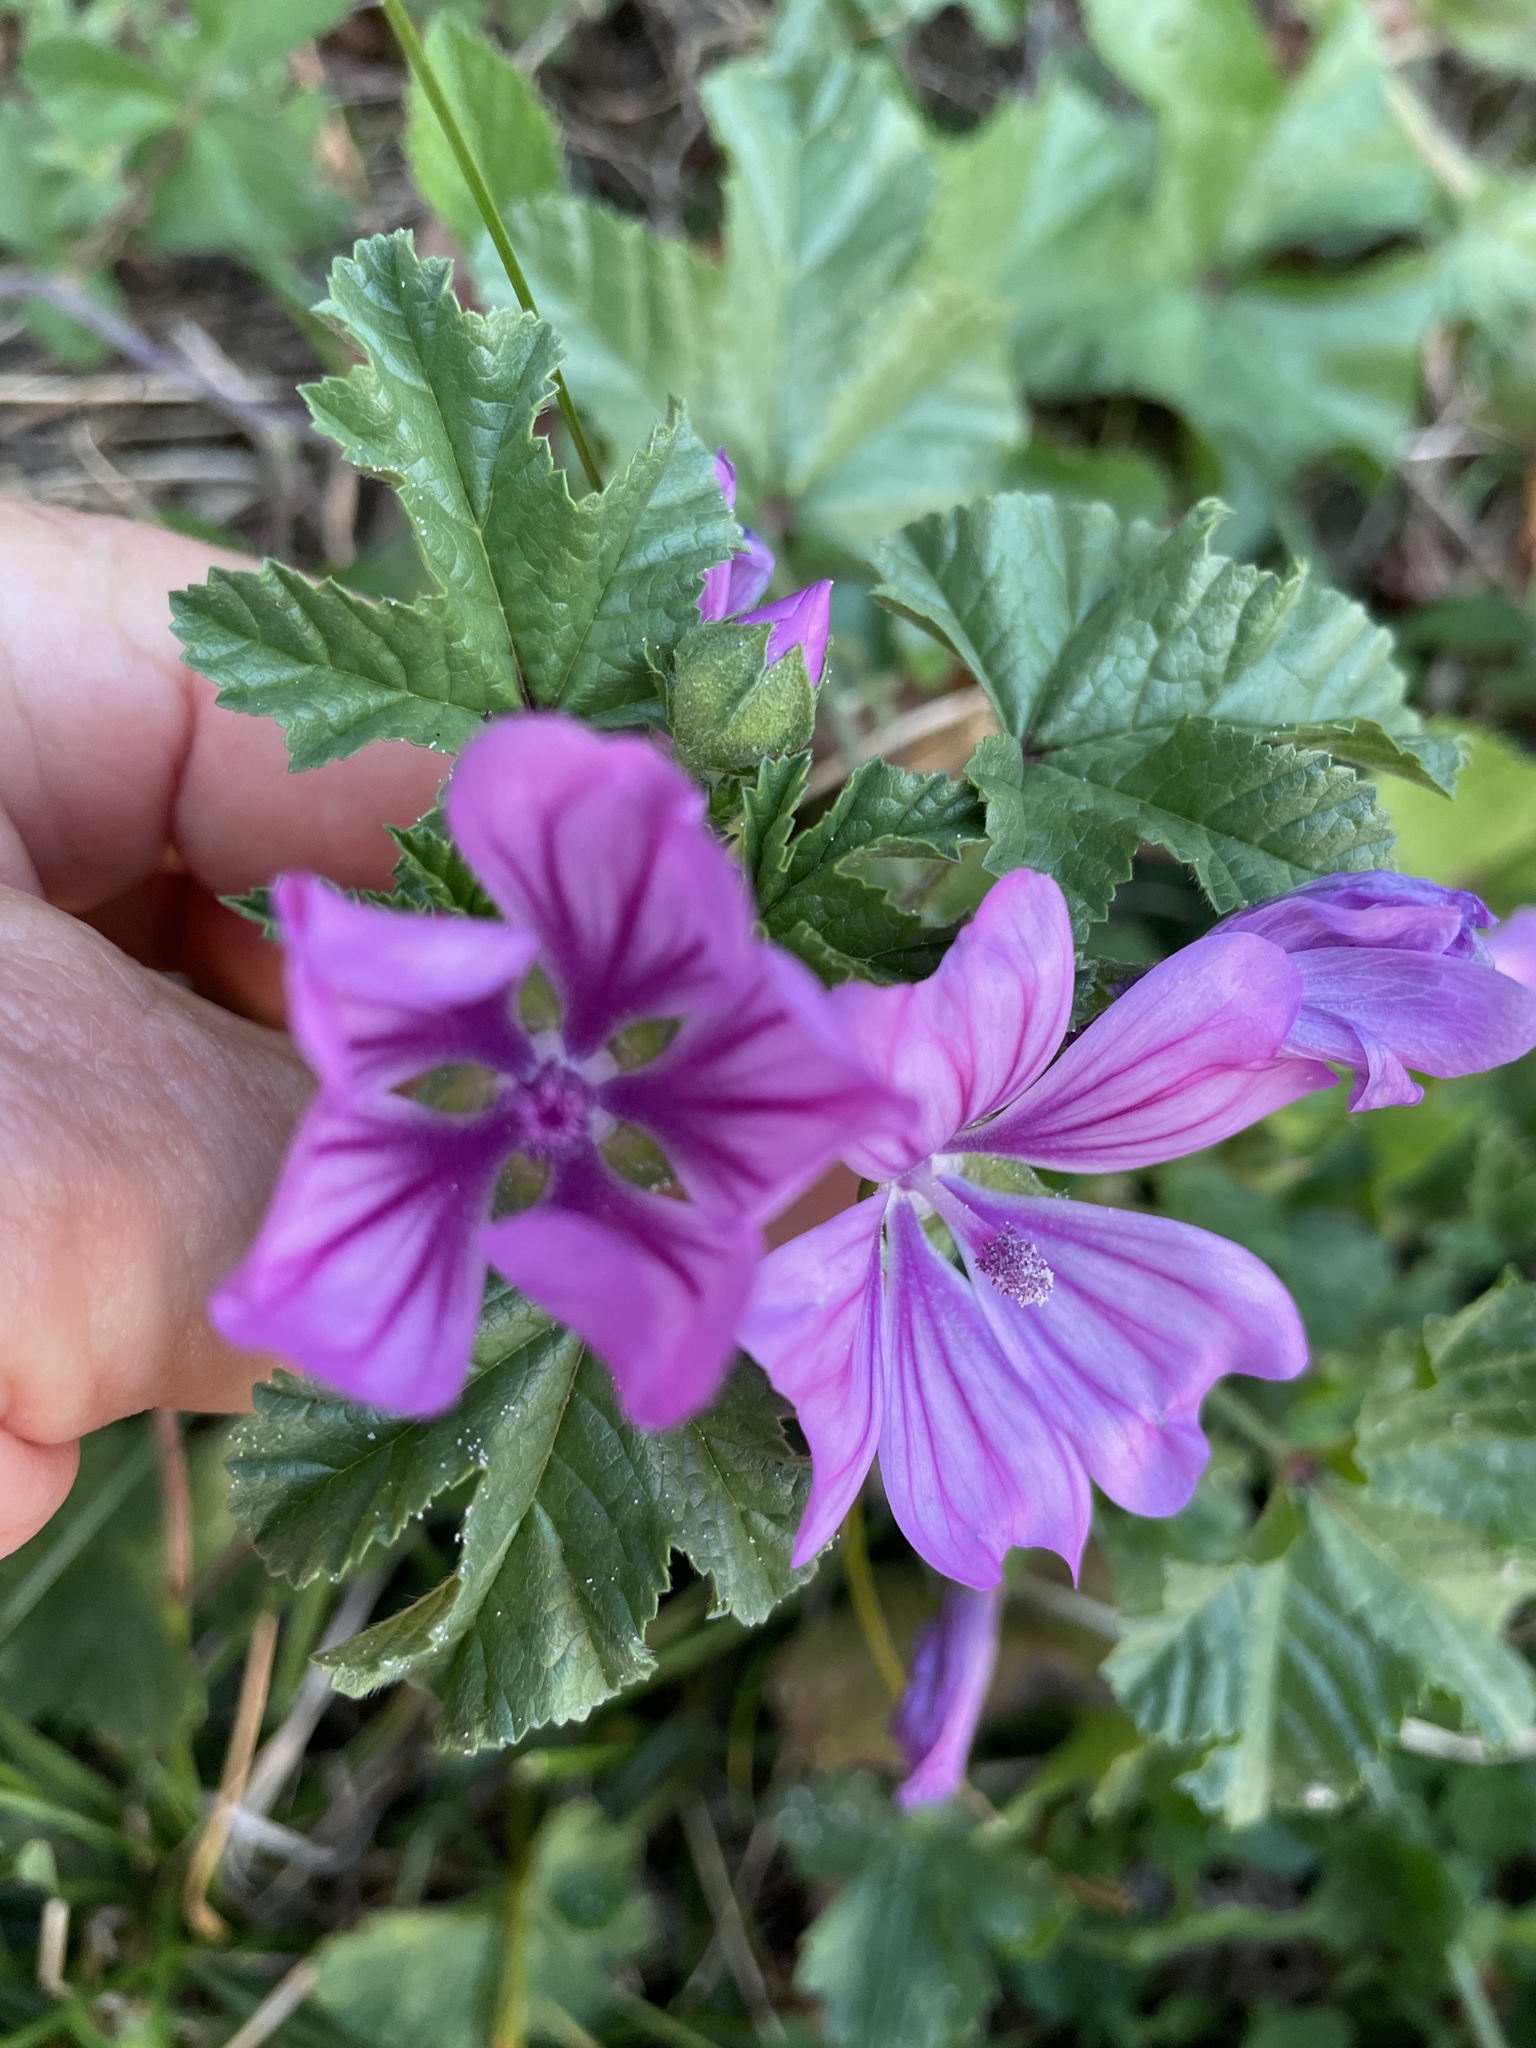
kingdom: Plantae
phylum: Tracheophyta
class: Magnoliopsida
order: Malvales
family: Malvaceae
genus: Malva
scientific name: Malva sylvestris
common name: Common mallow
